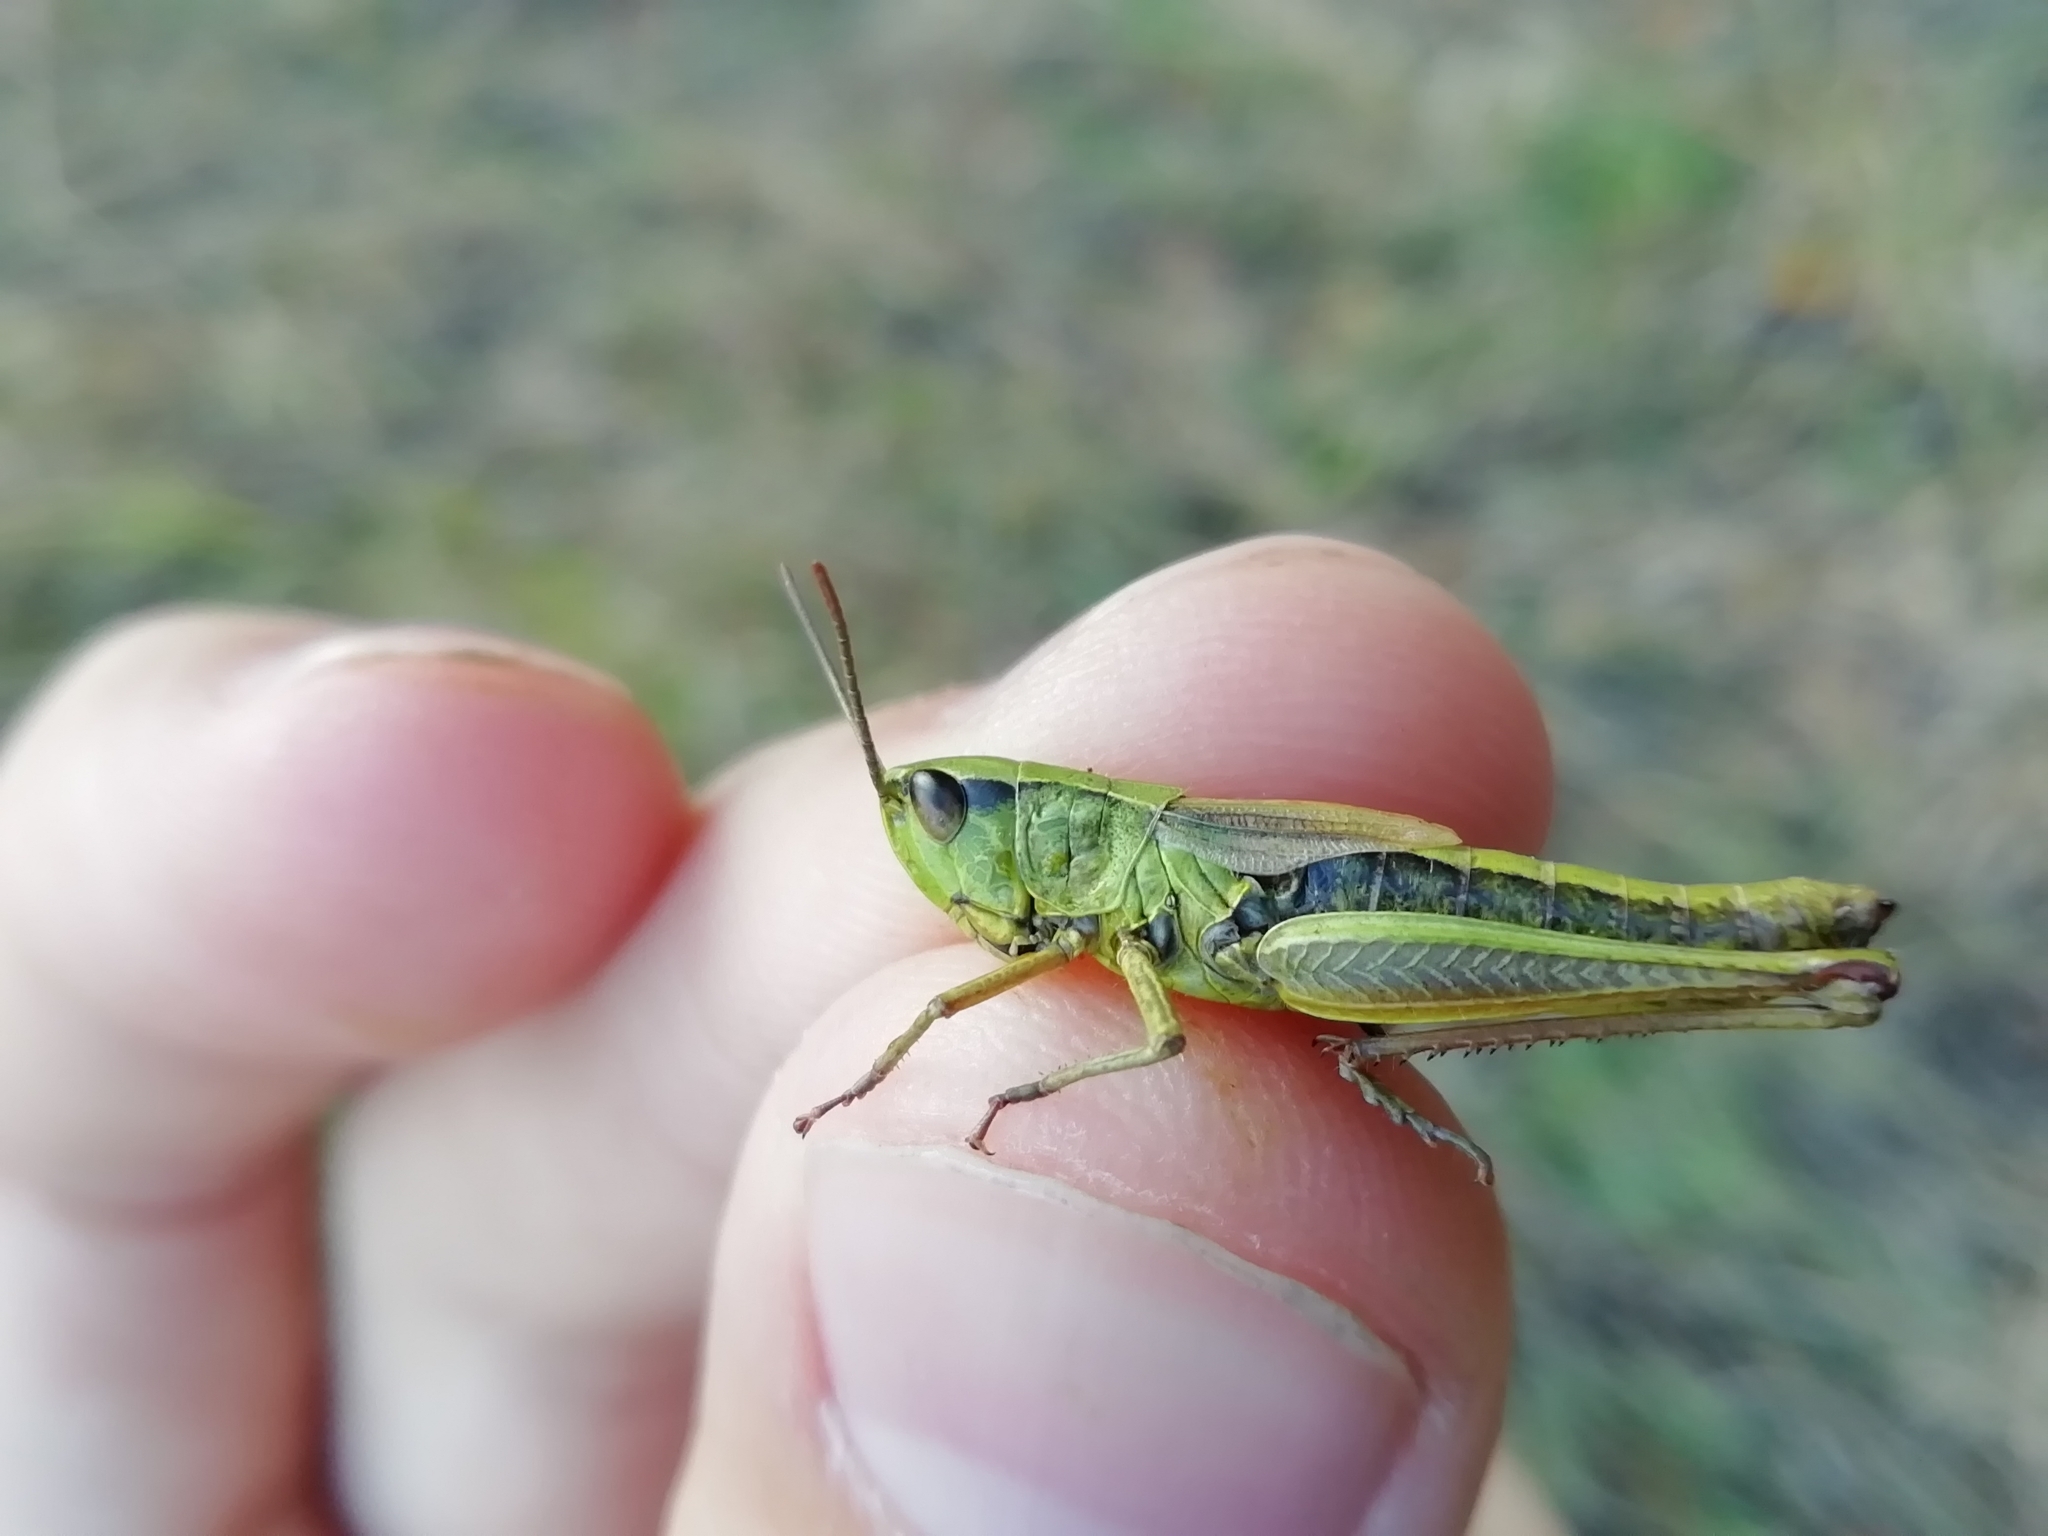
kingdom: Animalia
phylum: Arthropoda
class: Insecta
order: Orthoptera
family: Acrididae
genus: Pseudochorthippus
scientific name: Pseudochorthippus parallelus
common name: Meadow grasshopper
